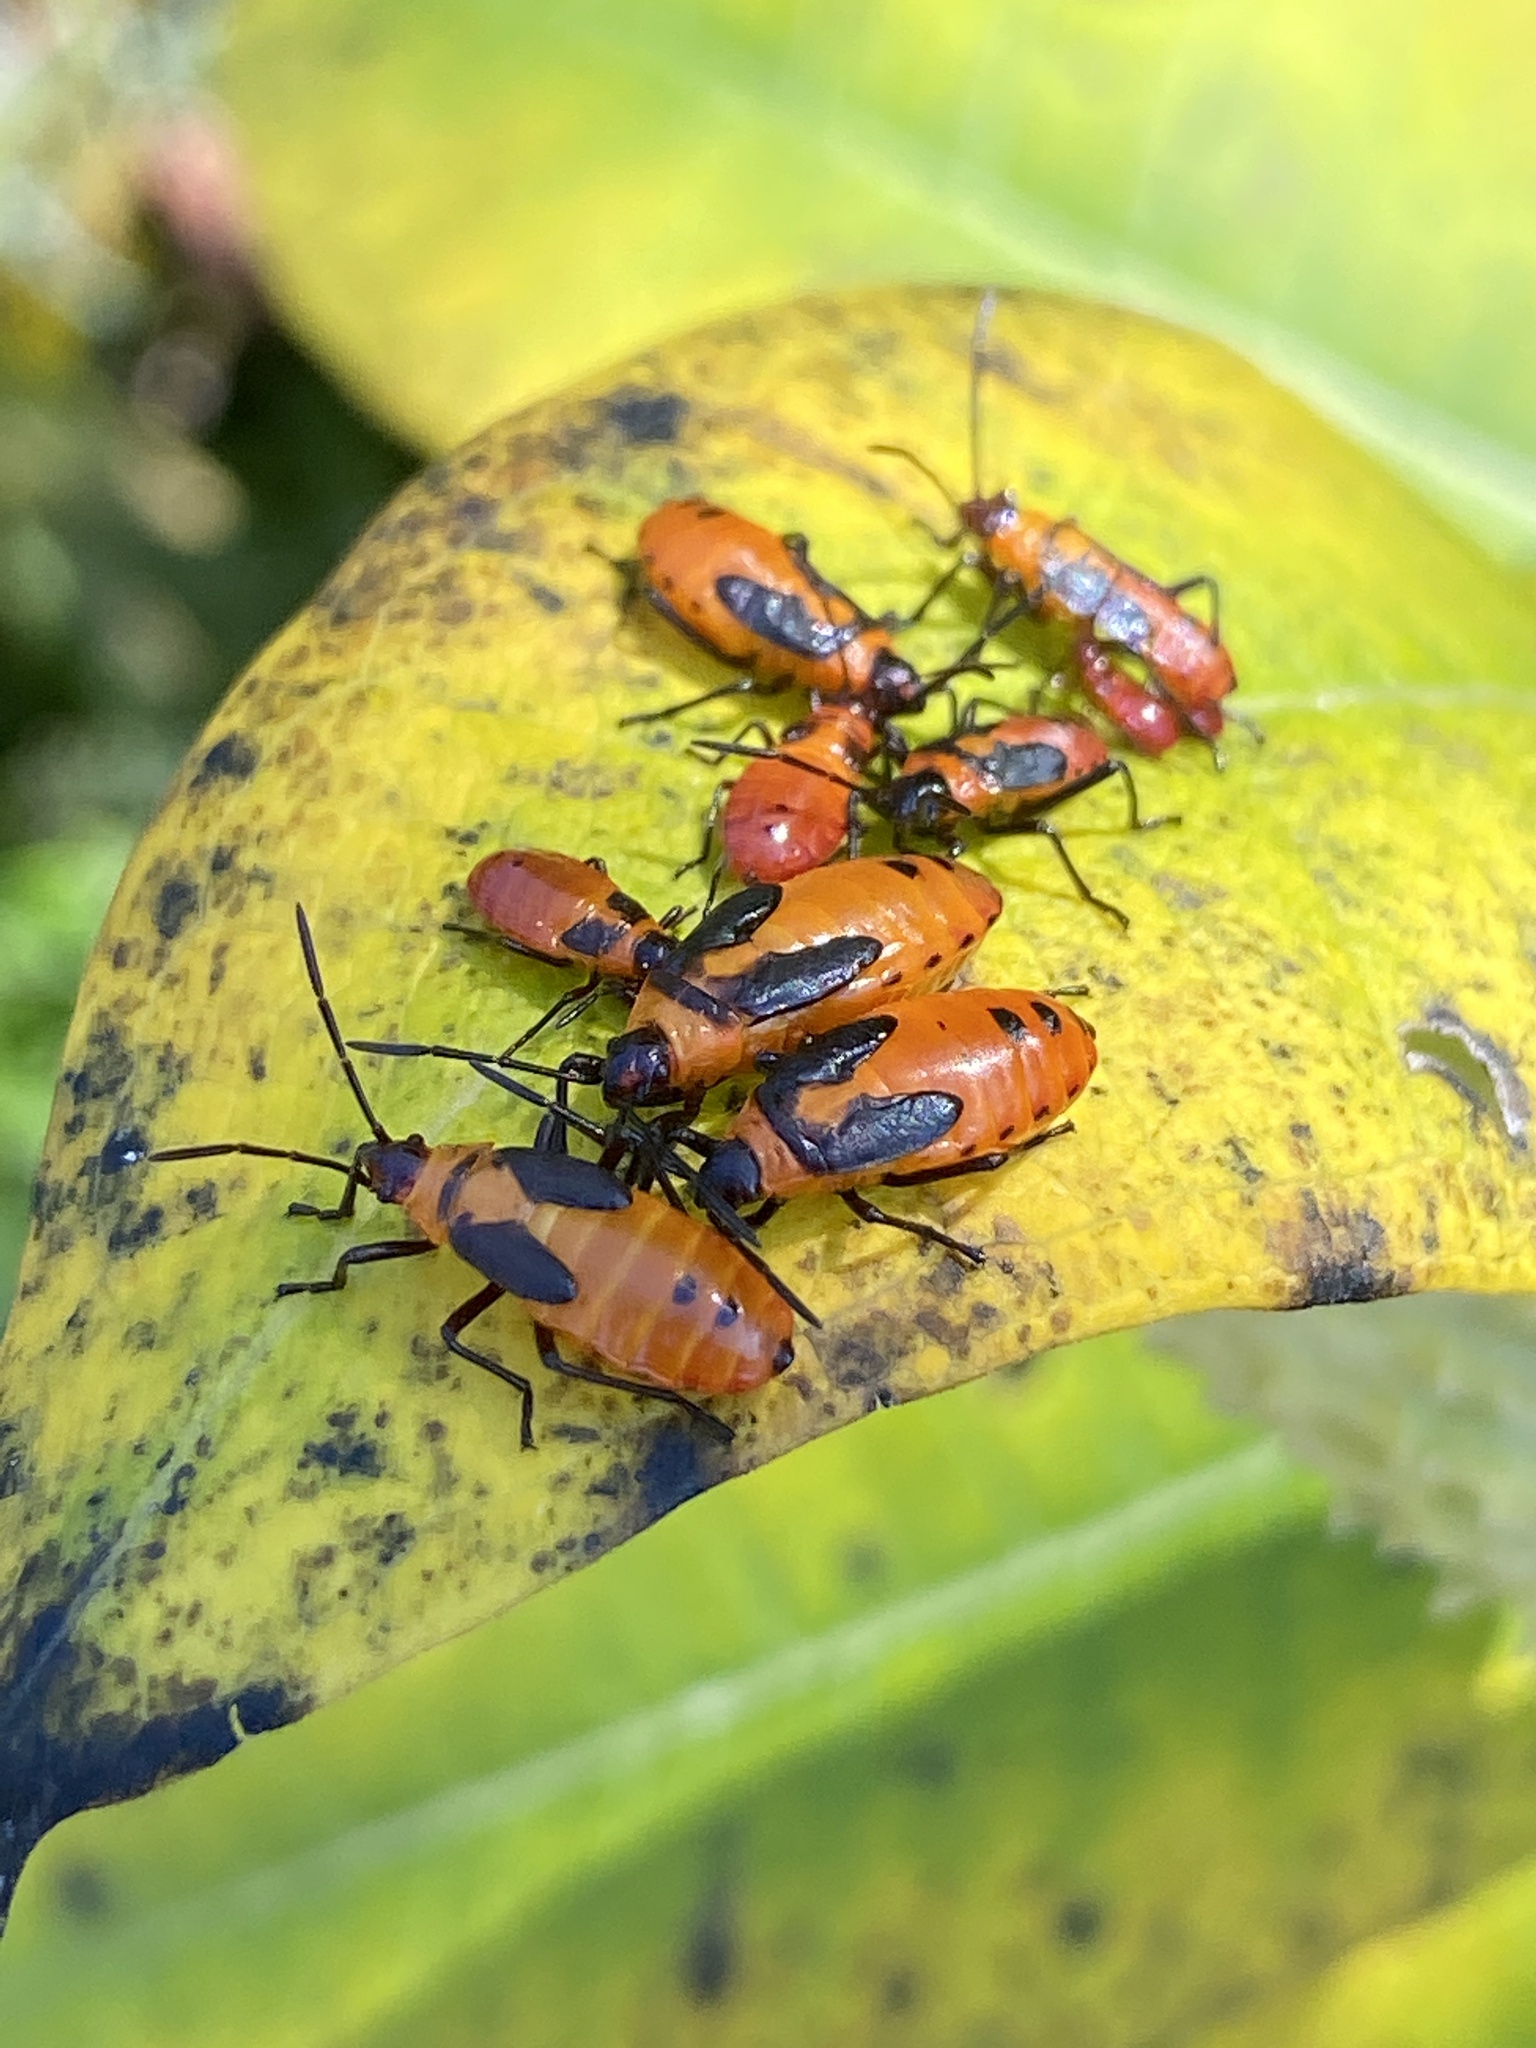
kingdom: Animalia
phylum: Arthropoda
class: Insecta
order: Hemiptera
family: Lygaeidae
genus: Oncopeltus
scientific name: Oncopeltus fasciatus
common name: Large milkweed bug
